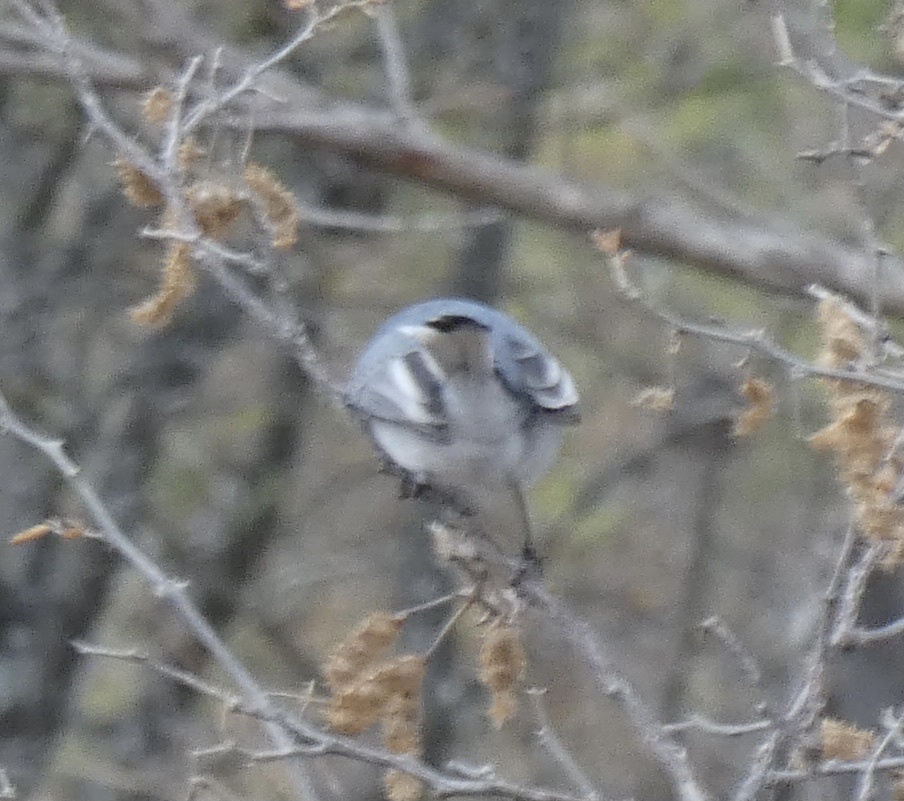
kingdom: Animalia
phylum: Chordata
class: Aves
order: Passeriformes
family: Aegithalidae
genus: Psaltriparus
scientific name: Psaltriparus minimus
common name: American bushtit
